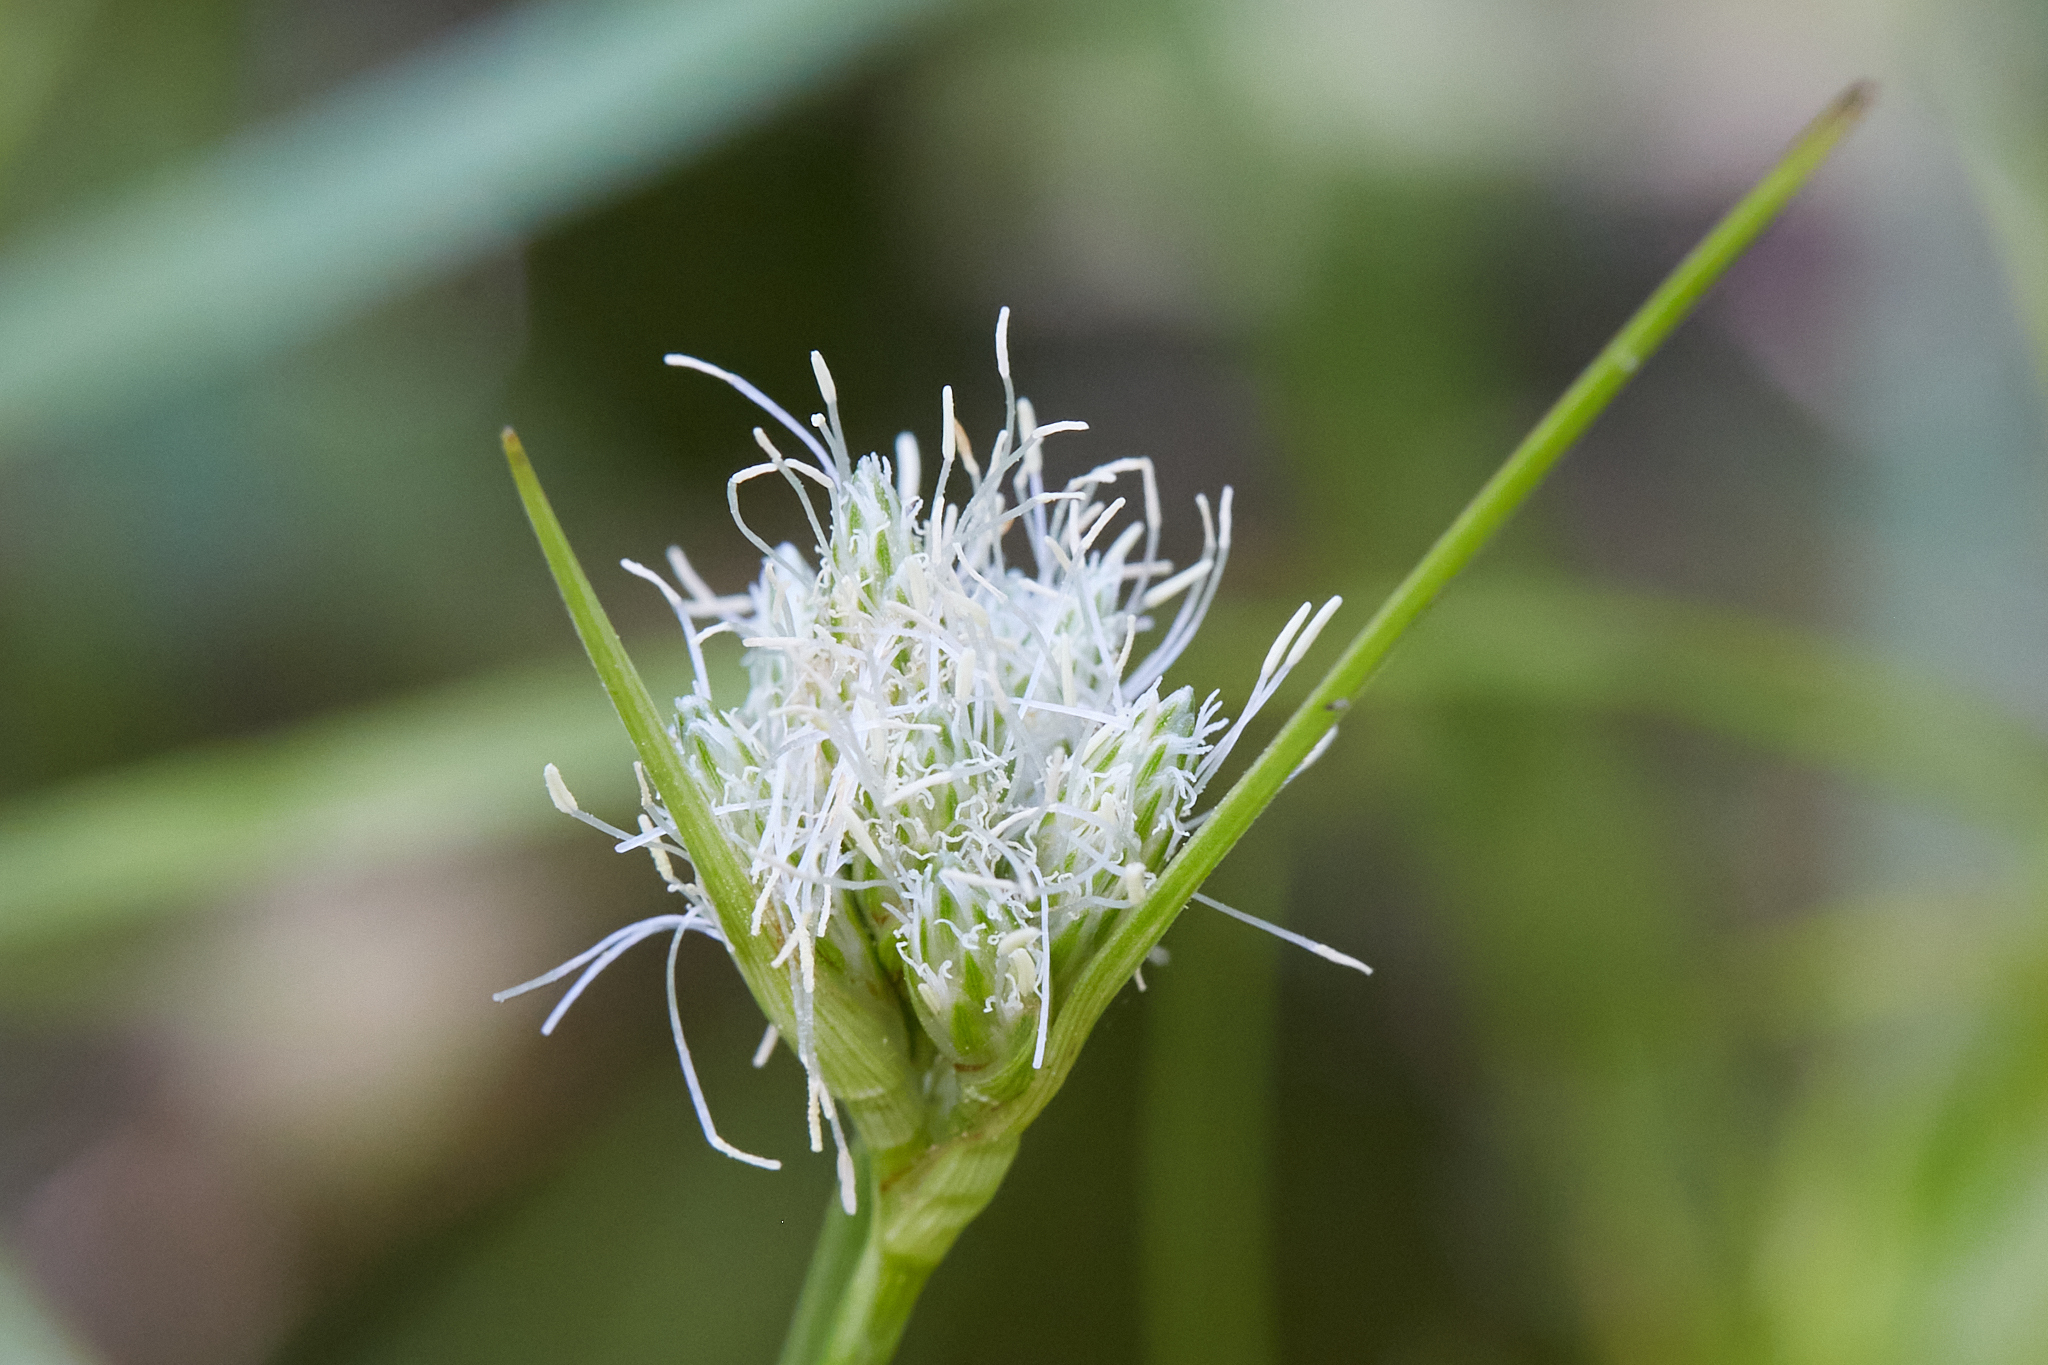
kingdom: Plantae
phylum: Tracheophyta
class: Liliopsida
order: Poales
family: Cyperaceae
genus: Eriophorum
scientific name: Eriophorum virginicum
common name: Tawny cottongrass
